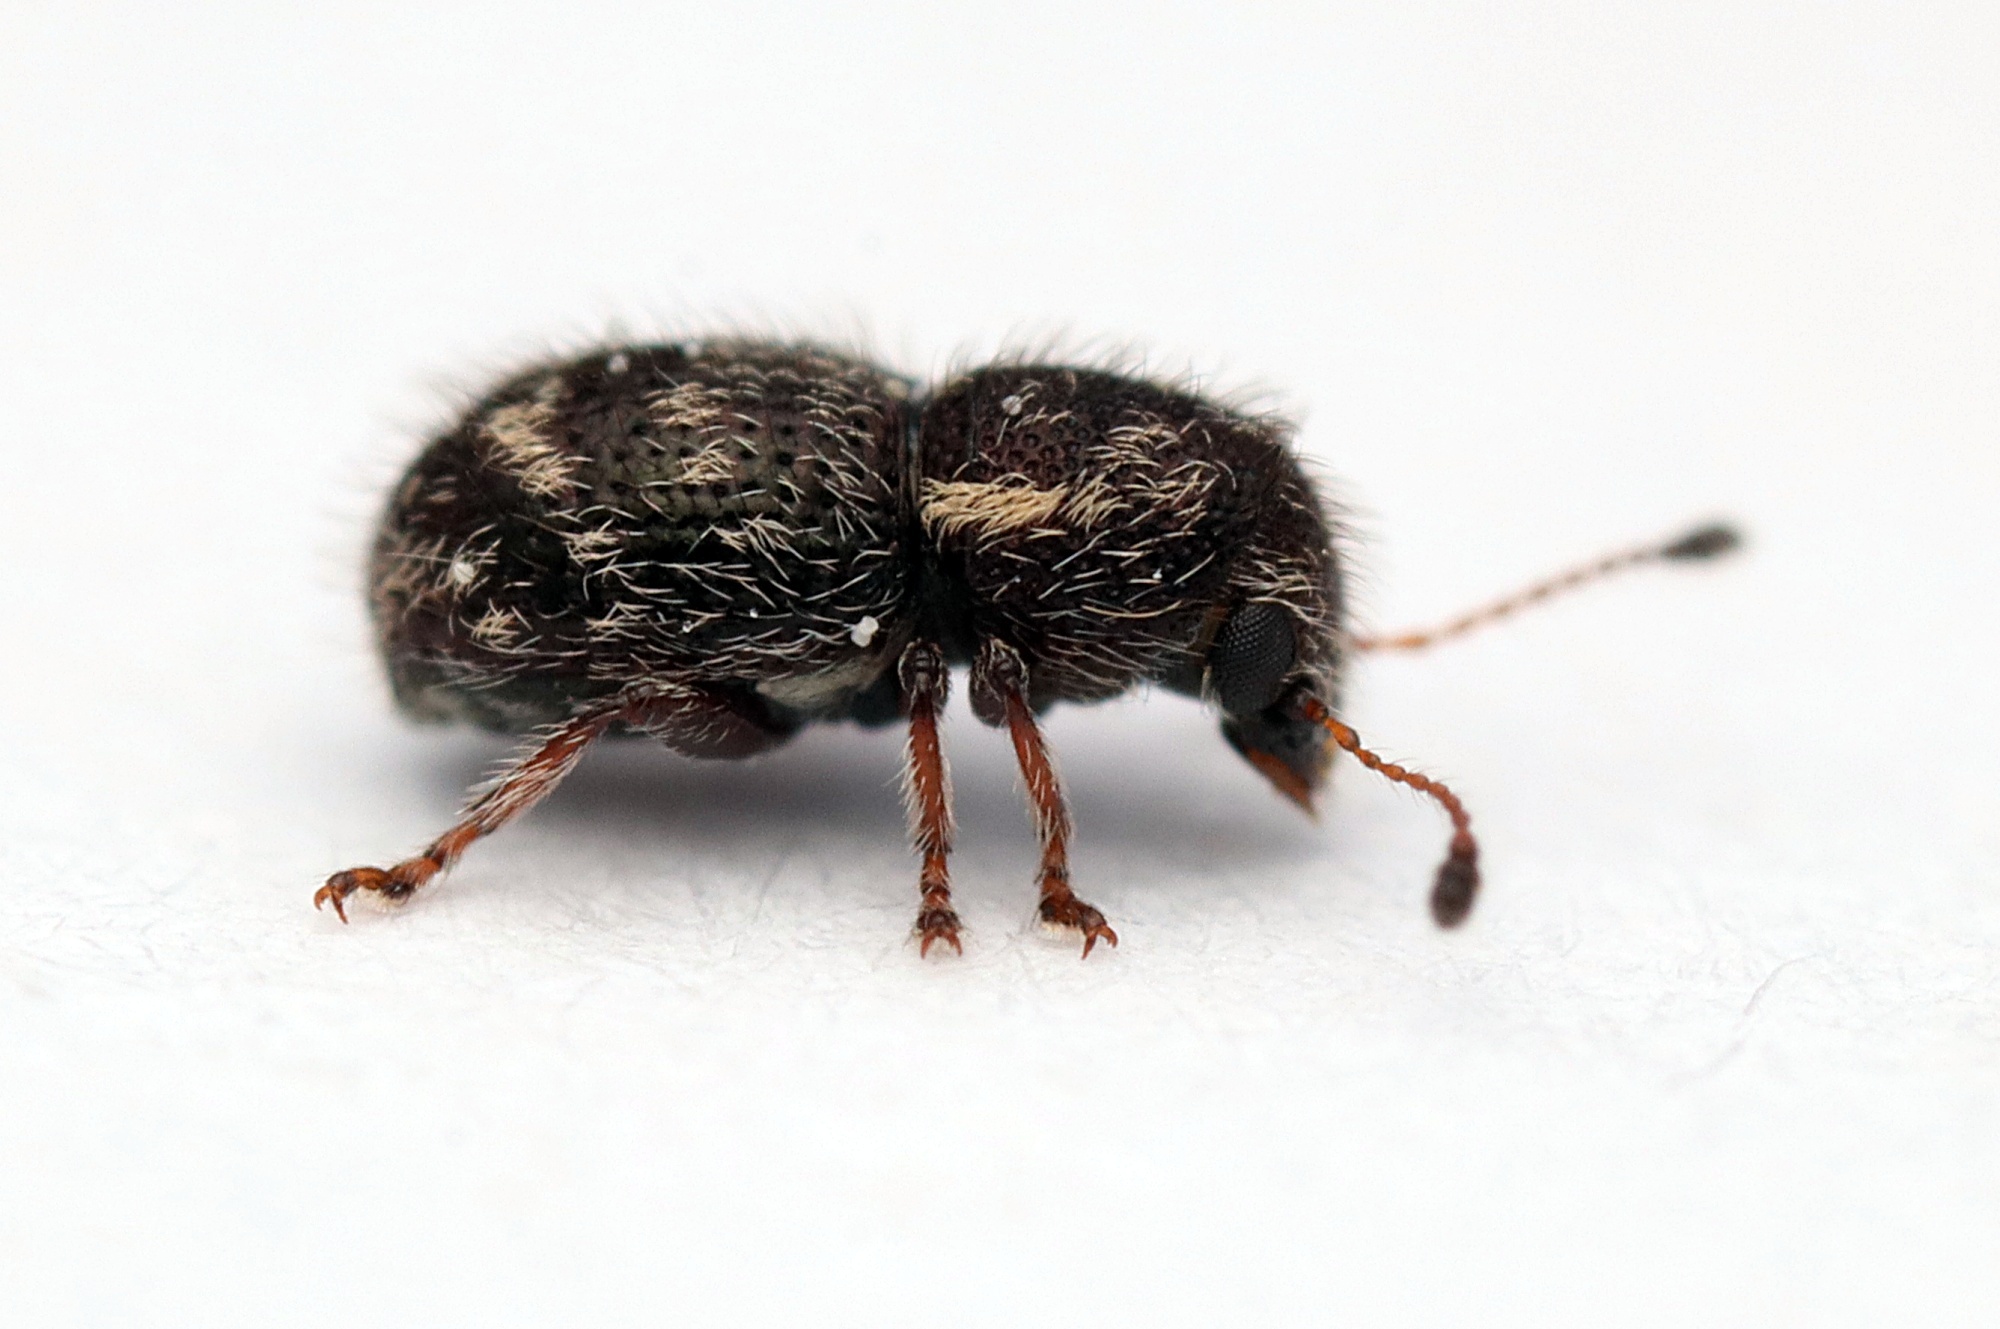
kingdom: Animalia
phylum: Arthropoda
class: Insecta
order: Coleoptera
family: Anthribidae
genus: Dasyanthribus
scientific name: Dasyanthribus purpureus
